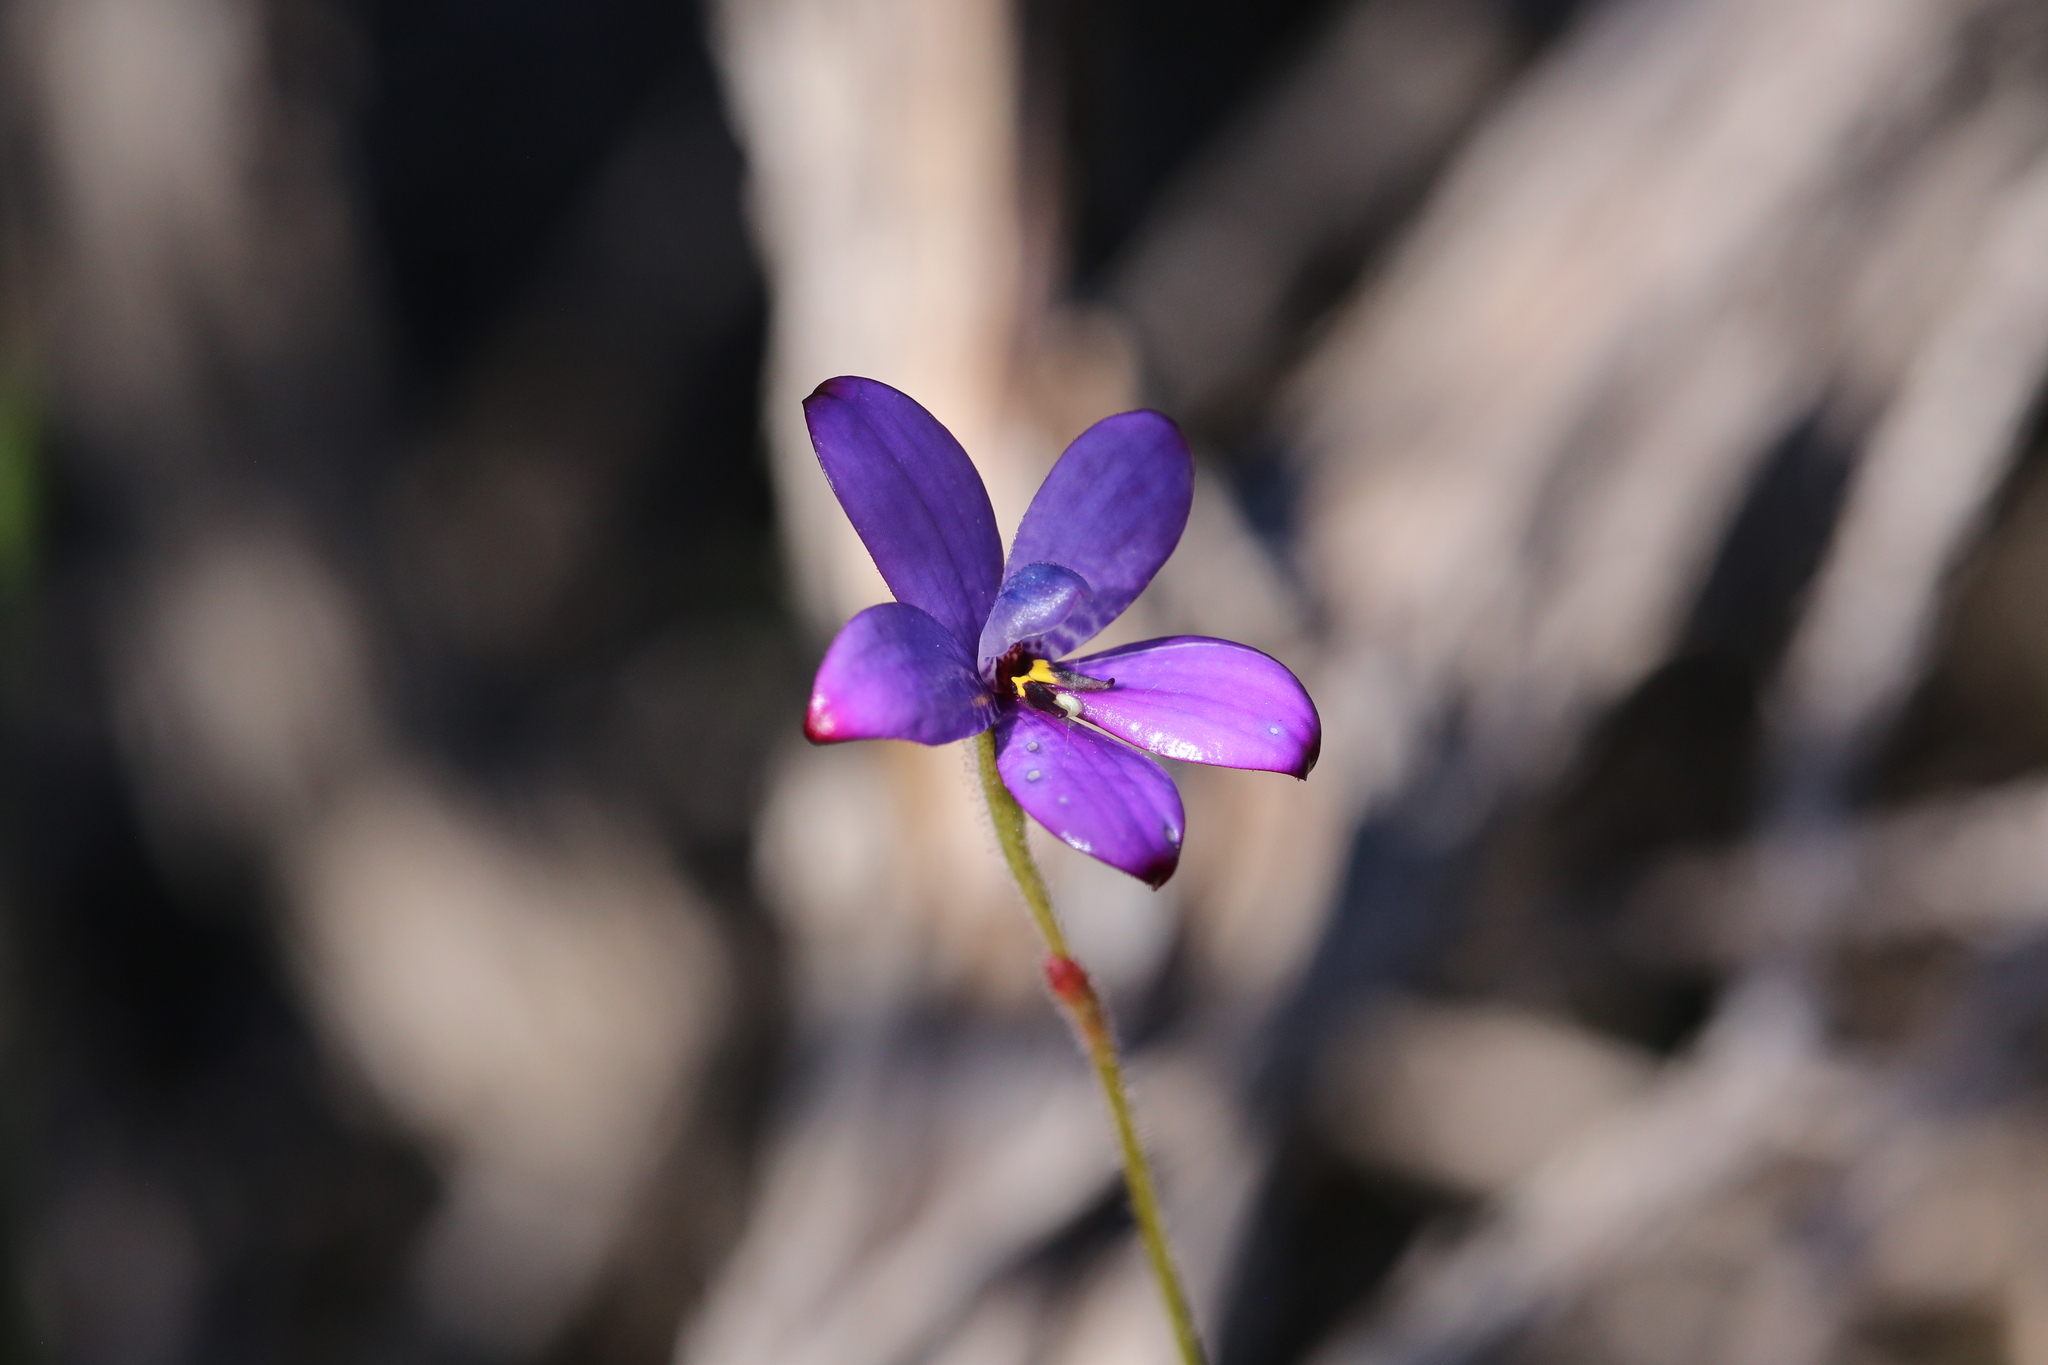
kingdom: Plantae
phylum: Tracheophyta
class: Liliopsida
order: Asparagales
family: Orchidaceae
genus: Caladenia
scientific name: Caladenia brunonis
